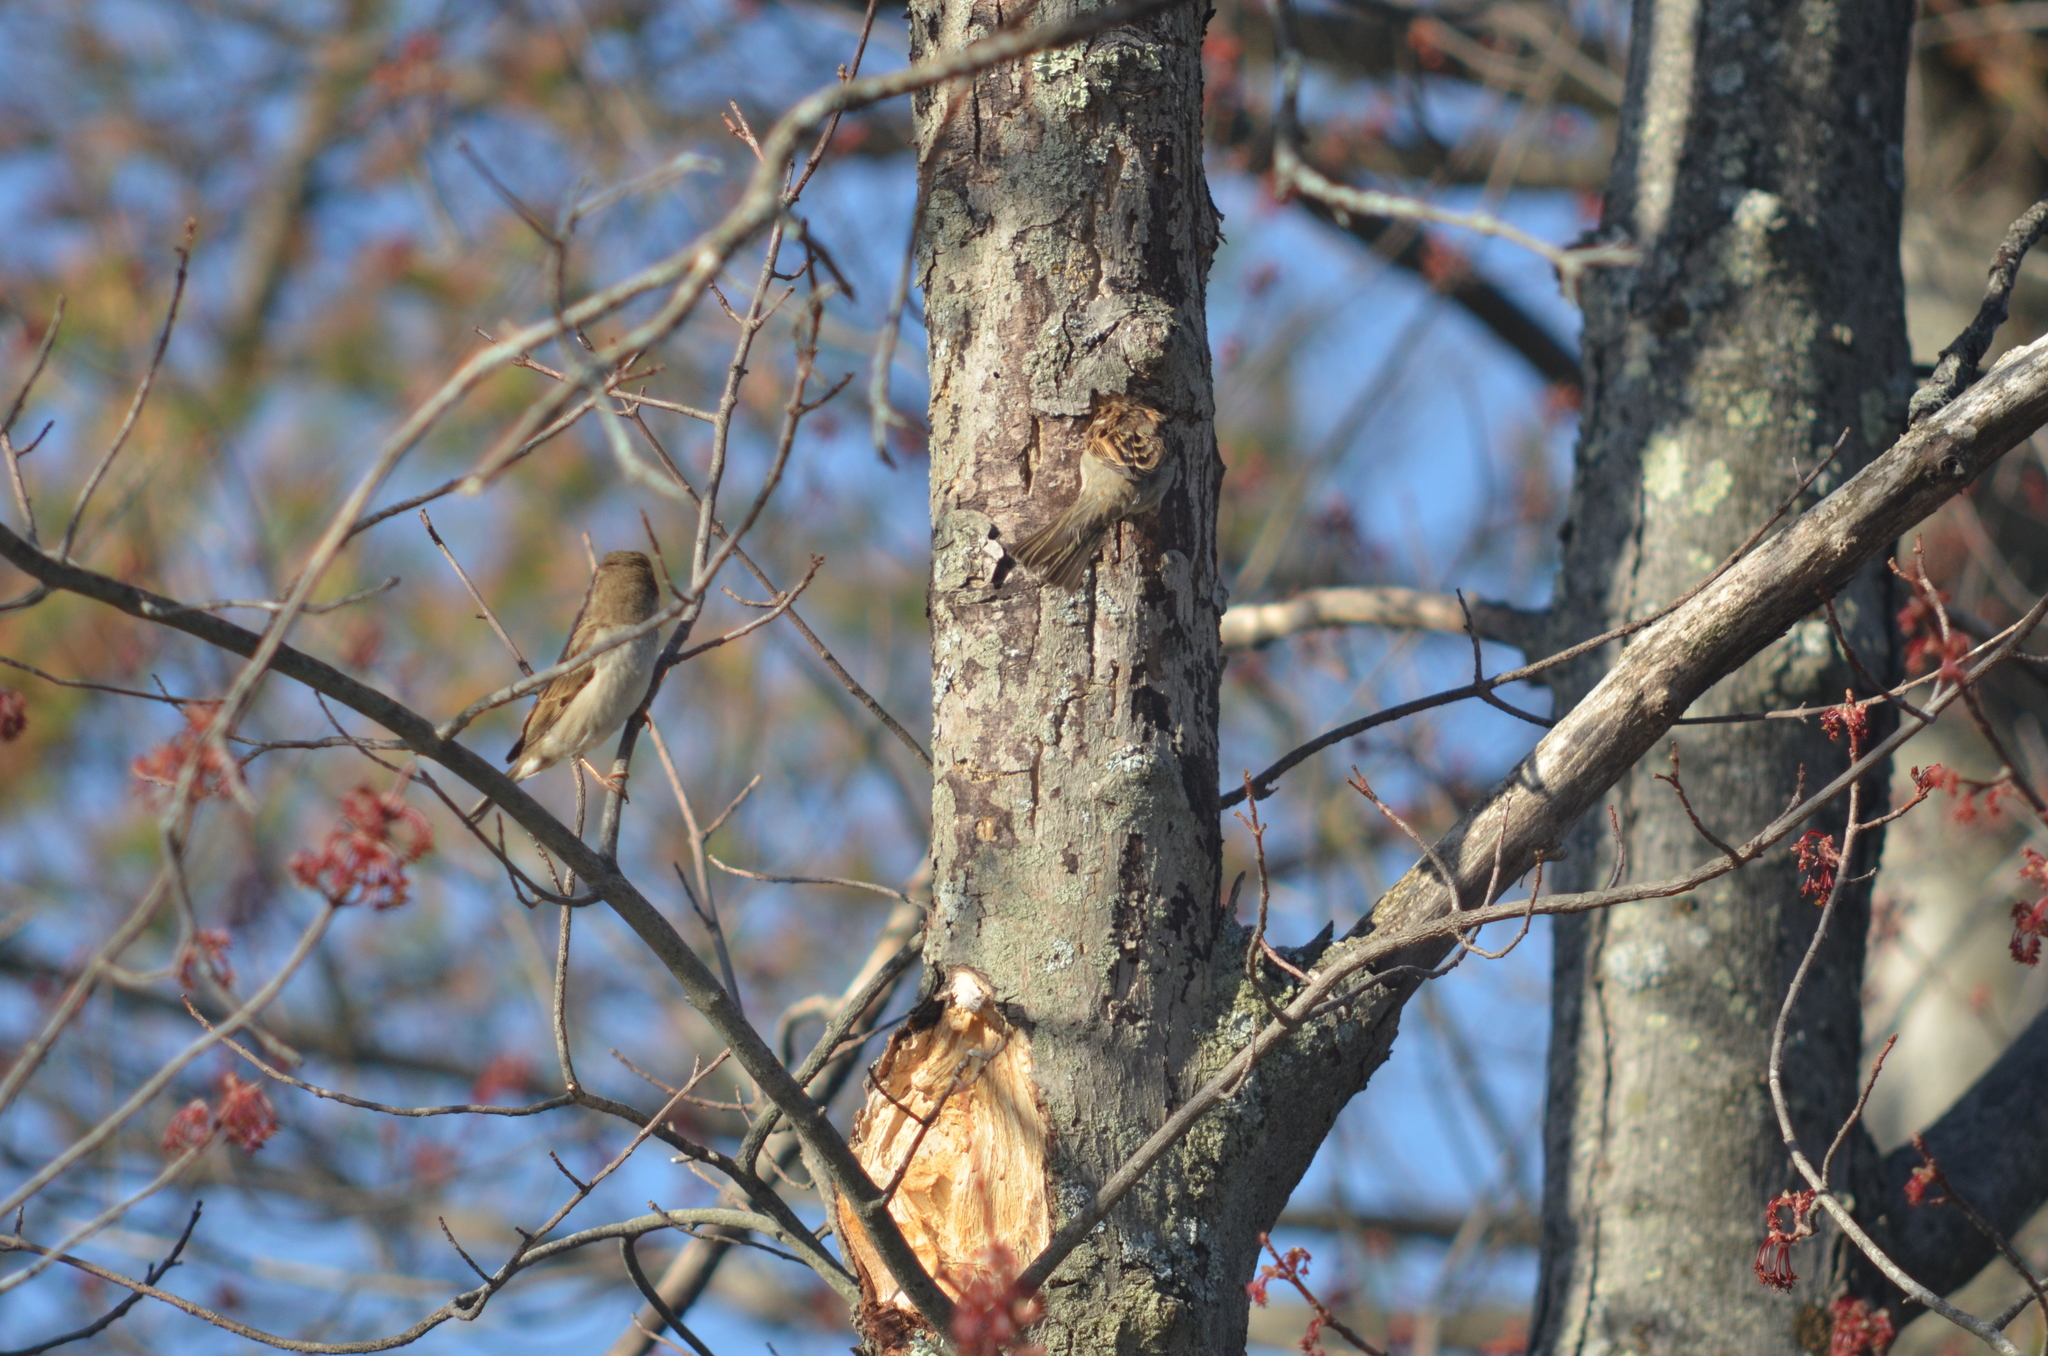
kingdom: Animalia
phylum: Chordata
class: Aves
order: Passeriformes
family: Passeridae
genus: Passer
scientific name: Passer domesticus
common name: House sparrow
